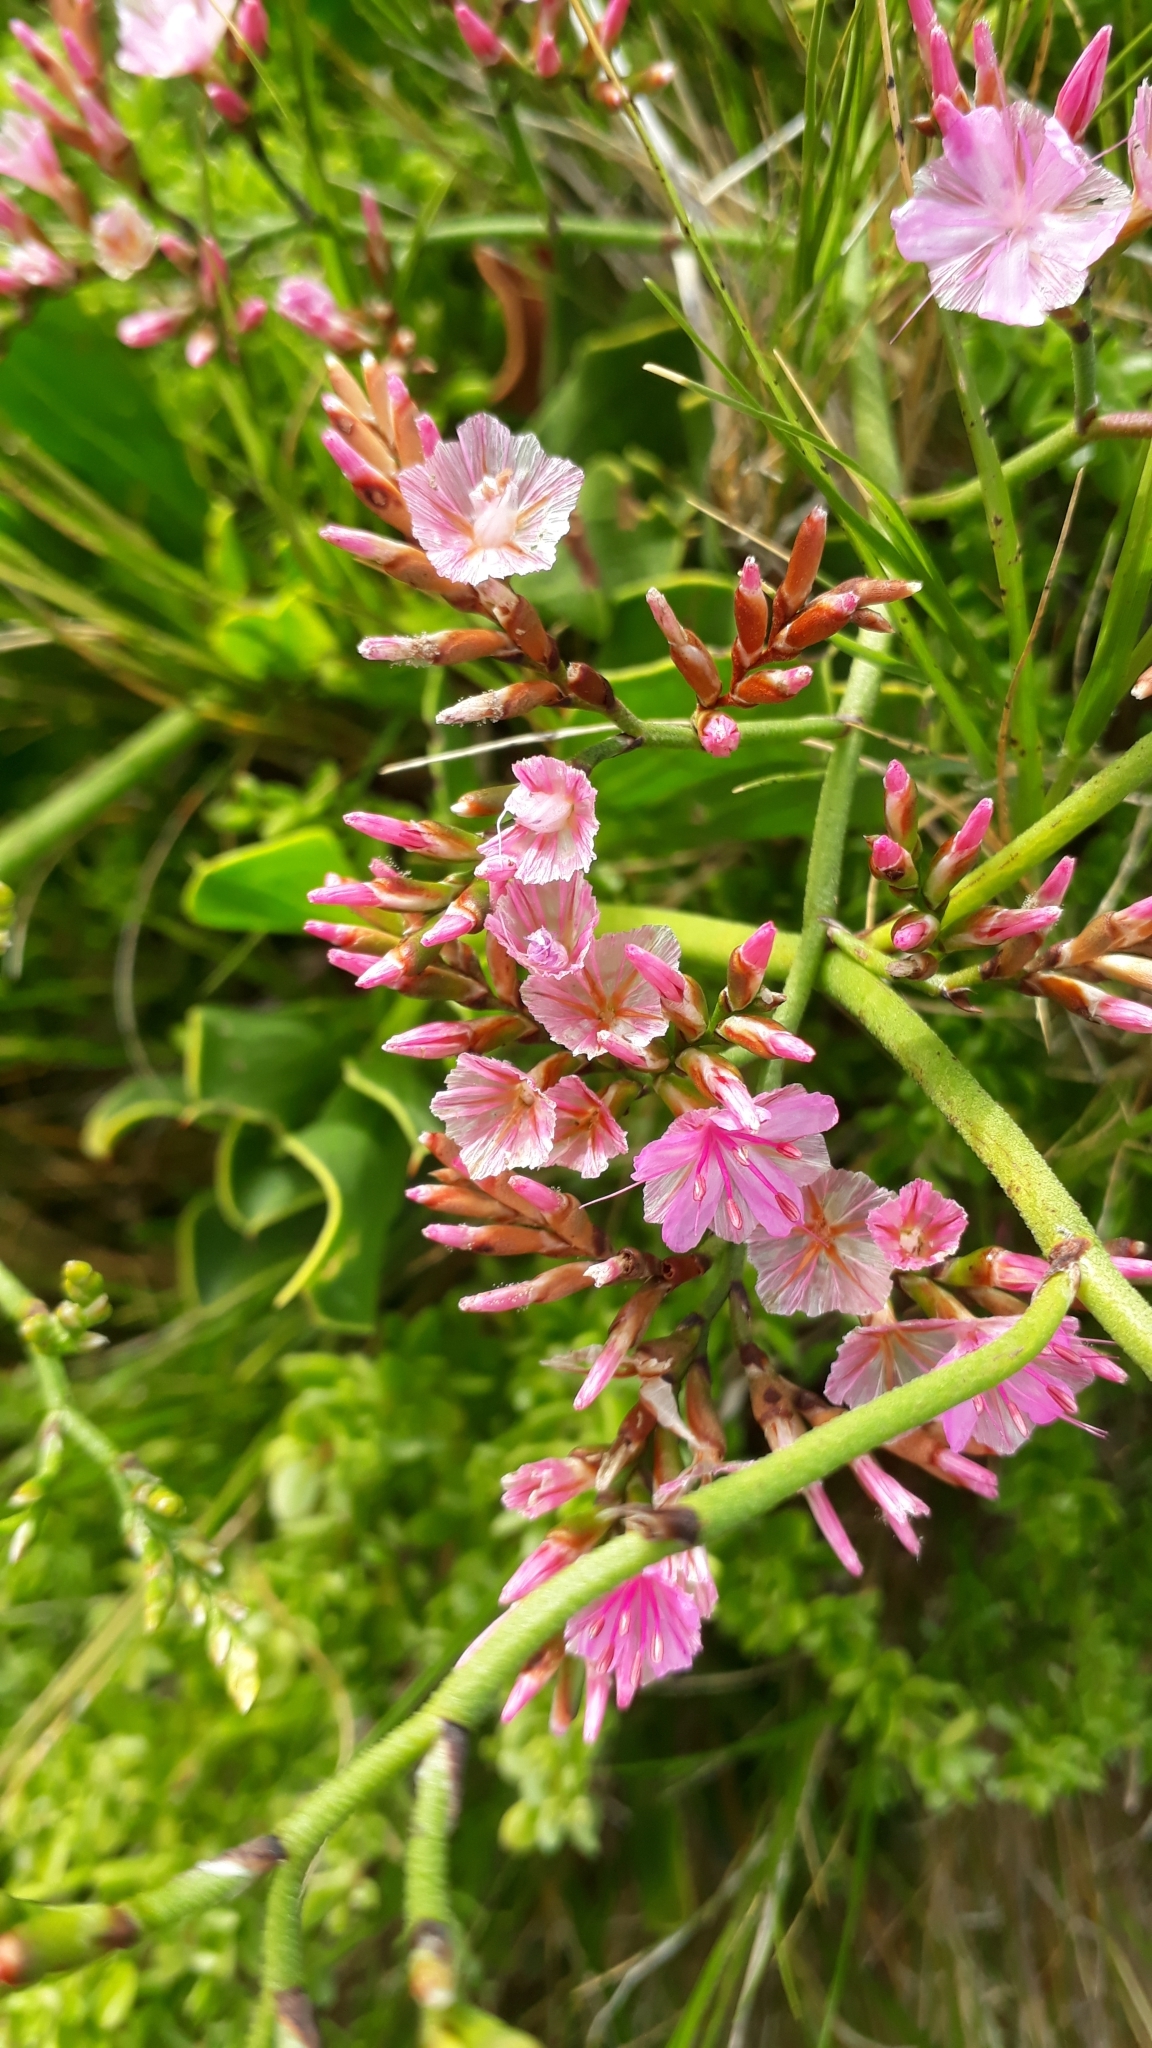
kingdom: Plantae
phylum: Tracheophyta
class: Magnoliopsida
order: Caryophyllales
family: Plumbaginaceae
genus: Limonium
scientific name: Limonium peregrinum
